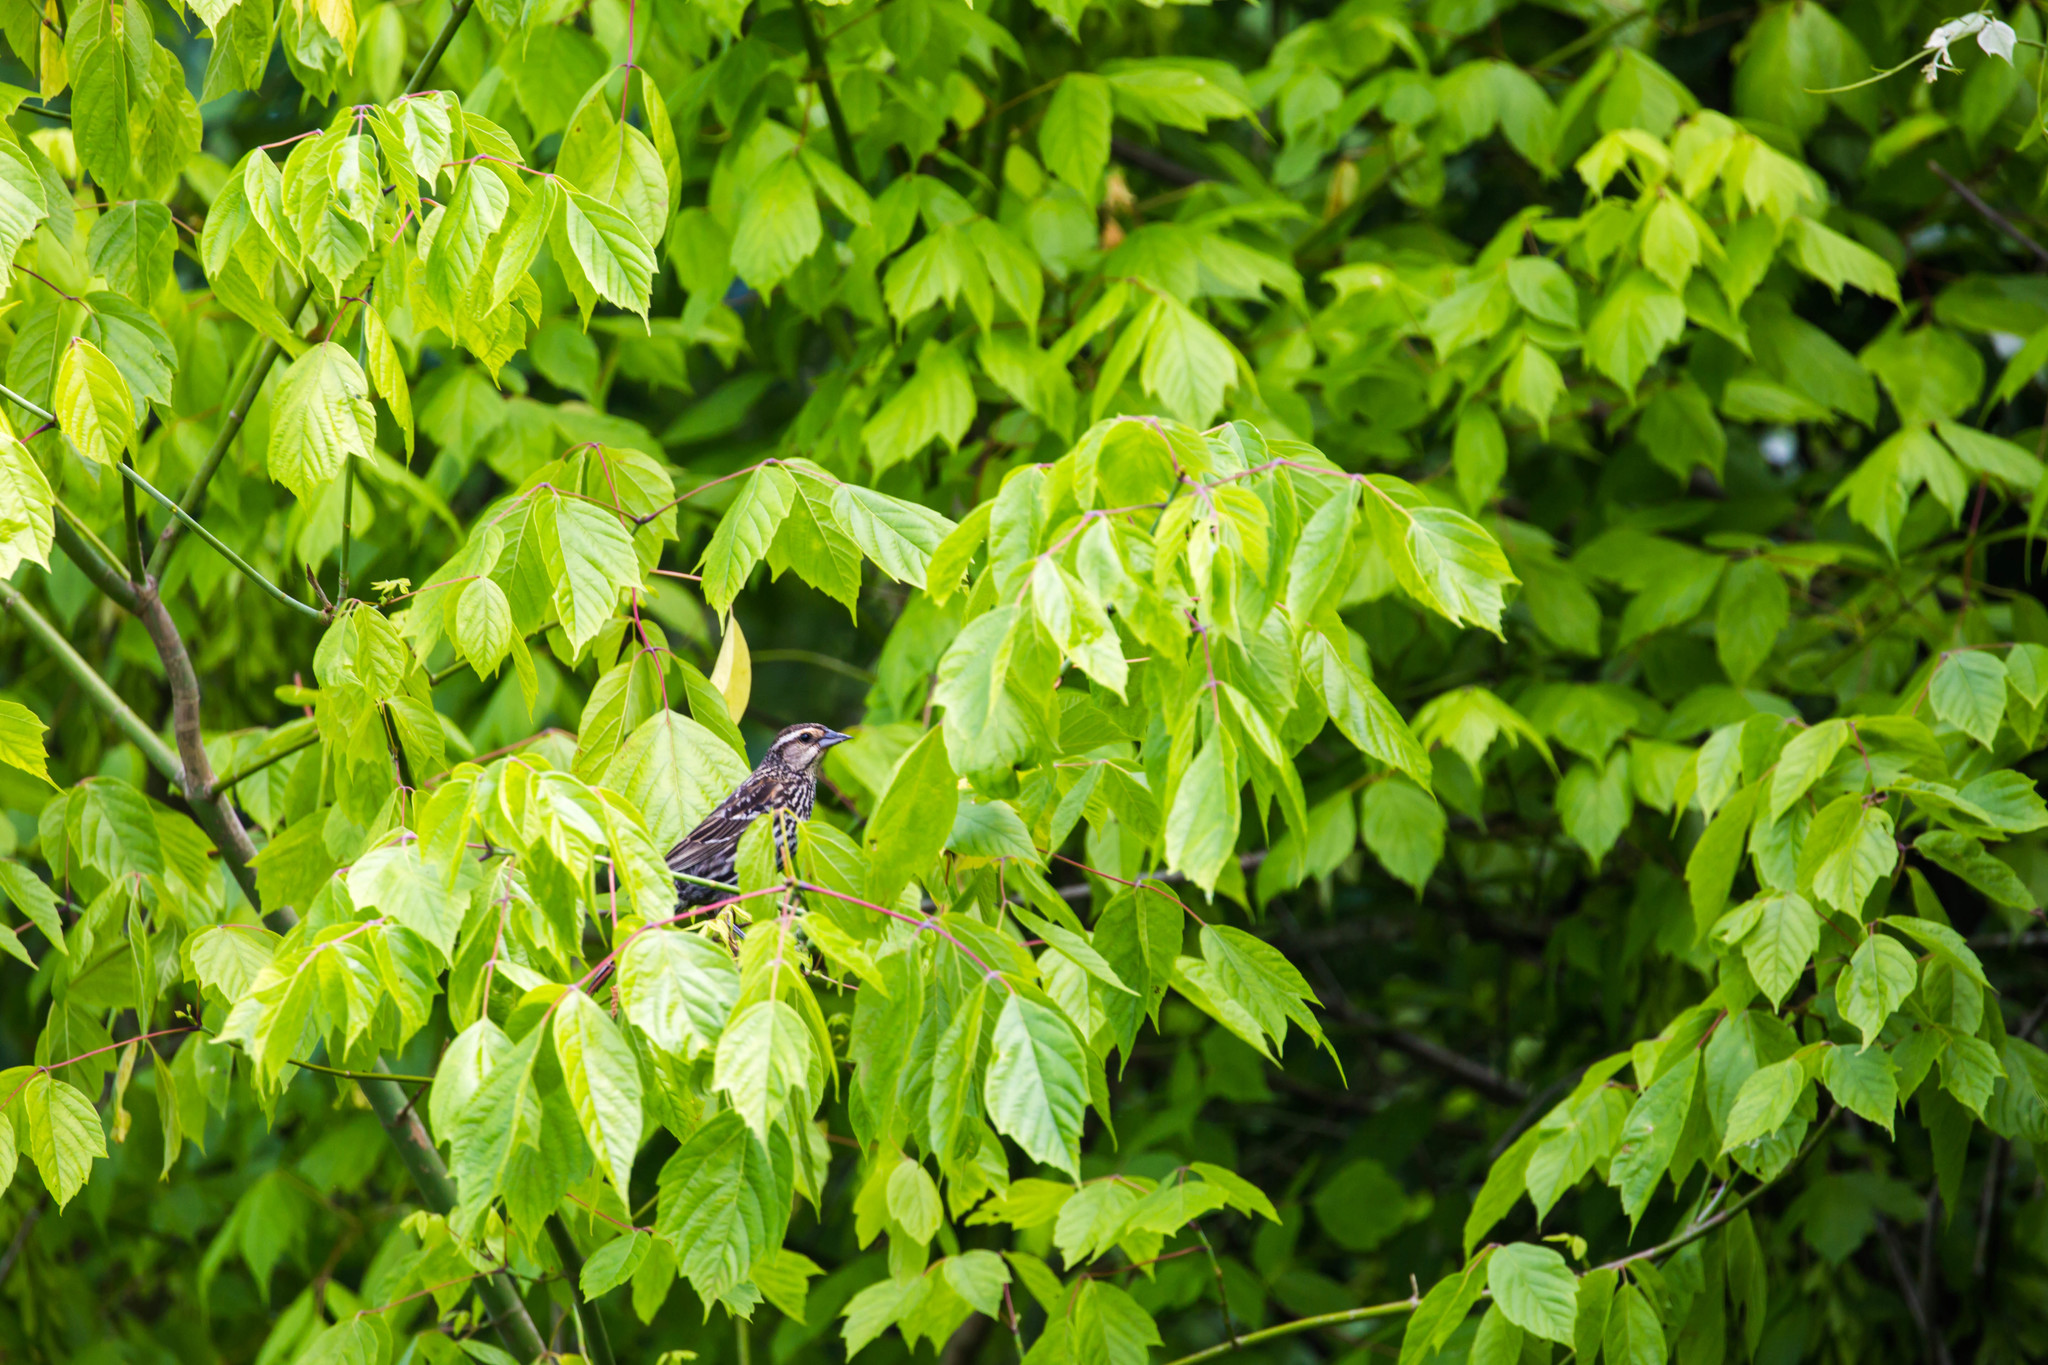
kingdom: Animalia
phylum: Chordata
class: Aves
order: Passeriformes
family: Icteridae
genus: Agelaius
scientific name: Agelaius phoeniceus
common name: Red-winged blackbird
